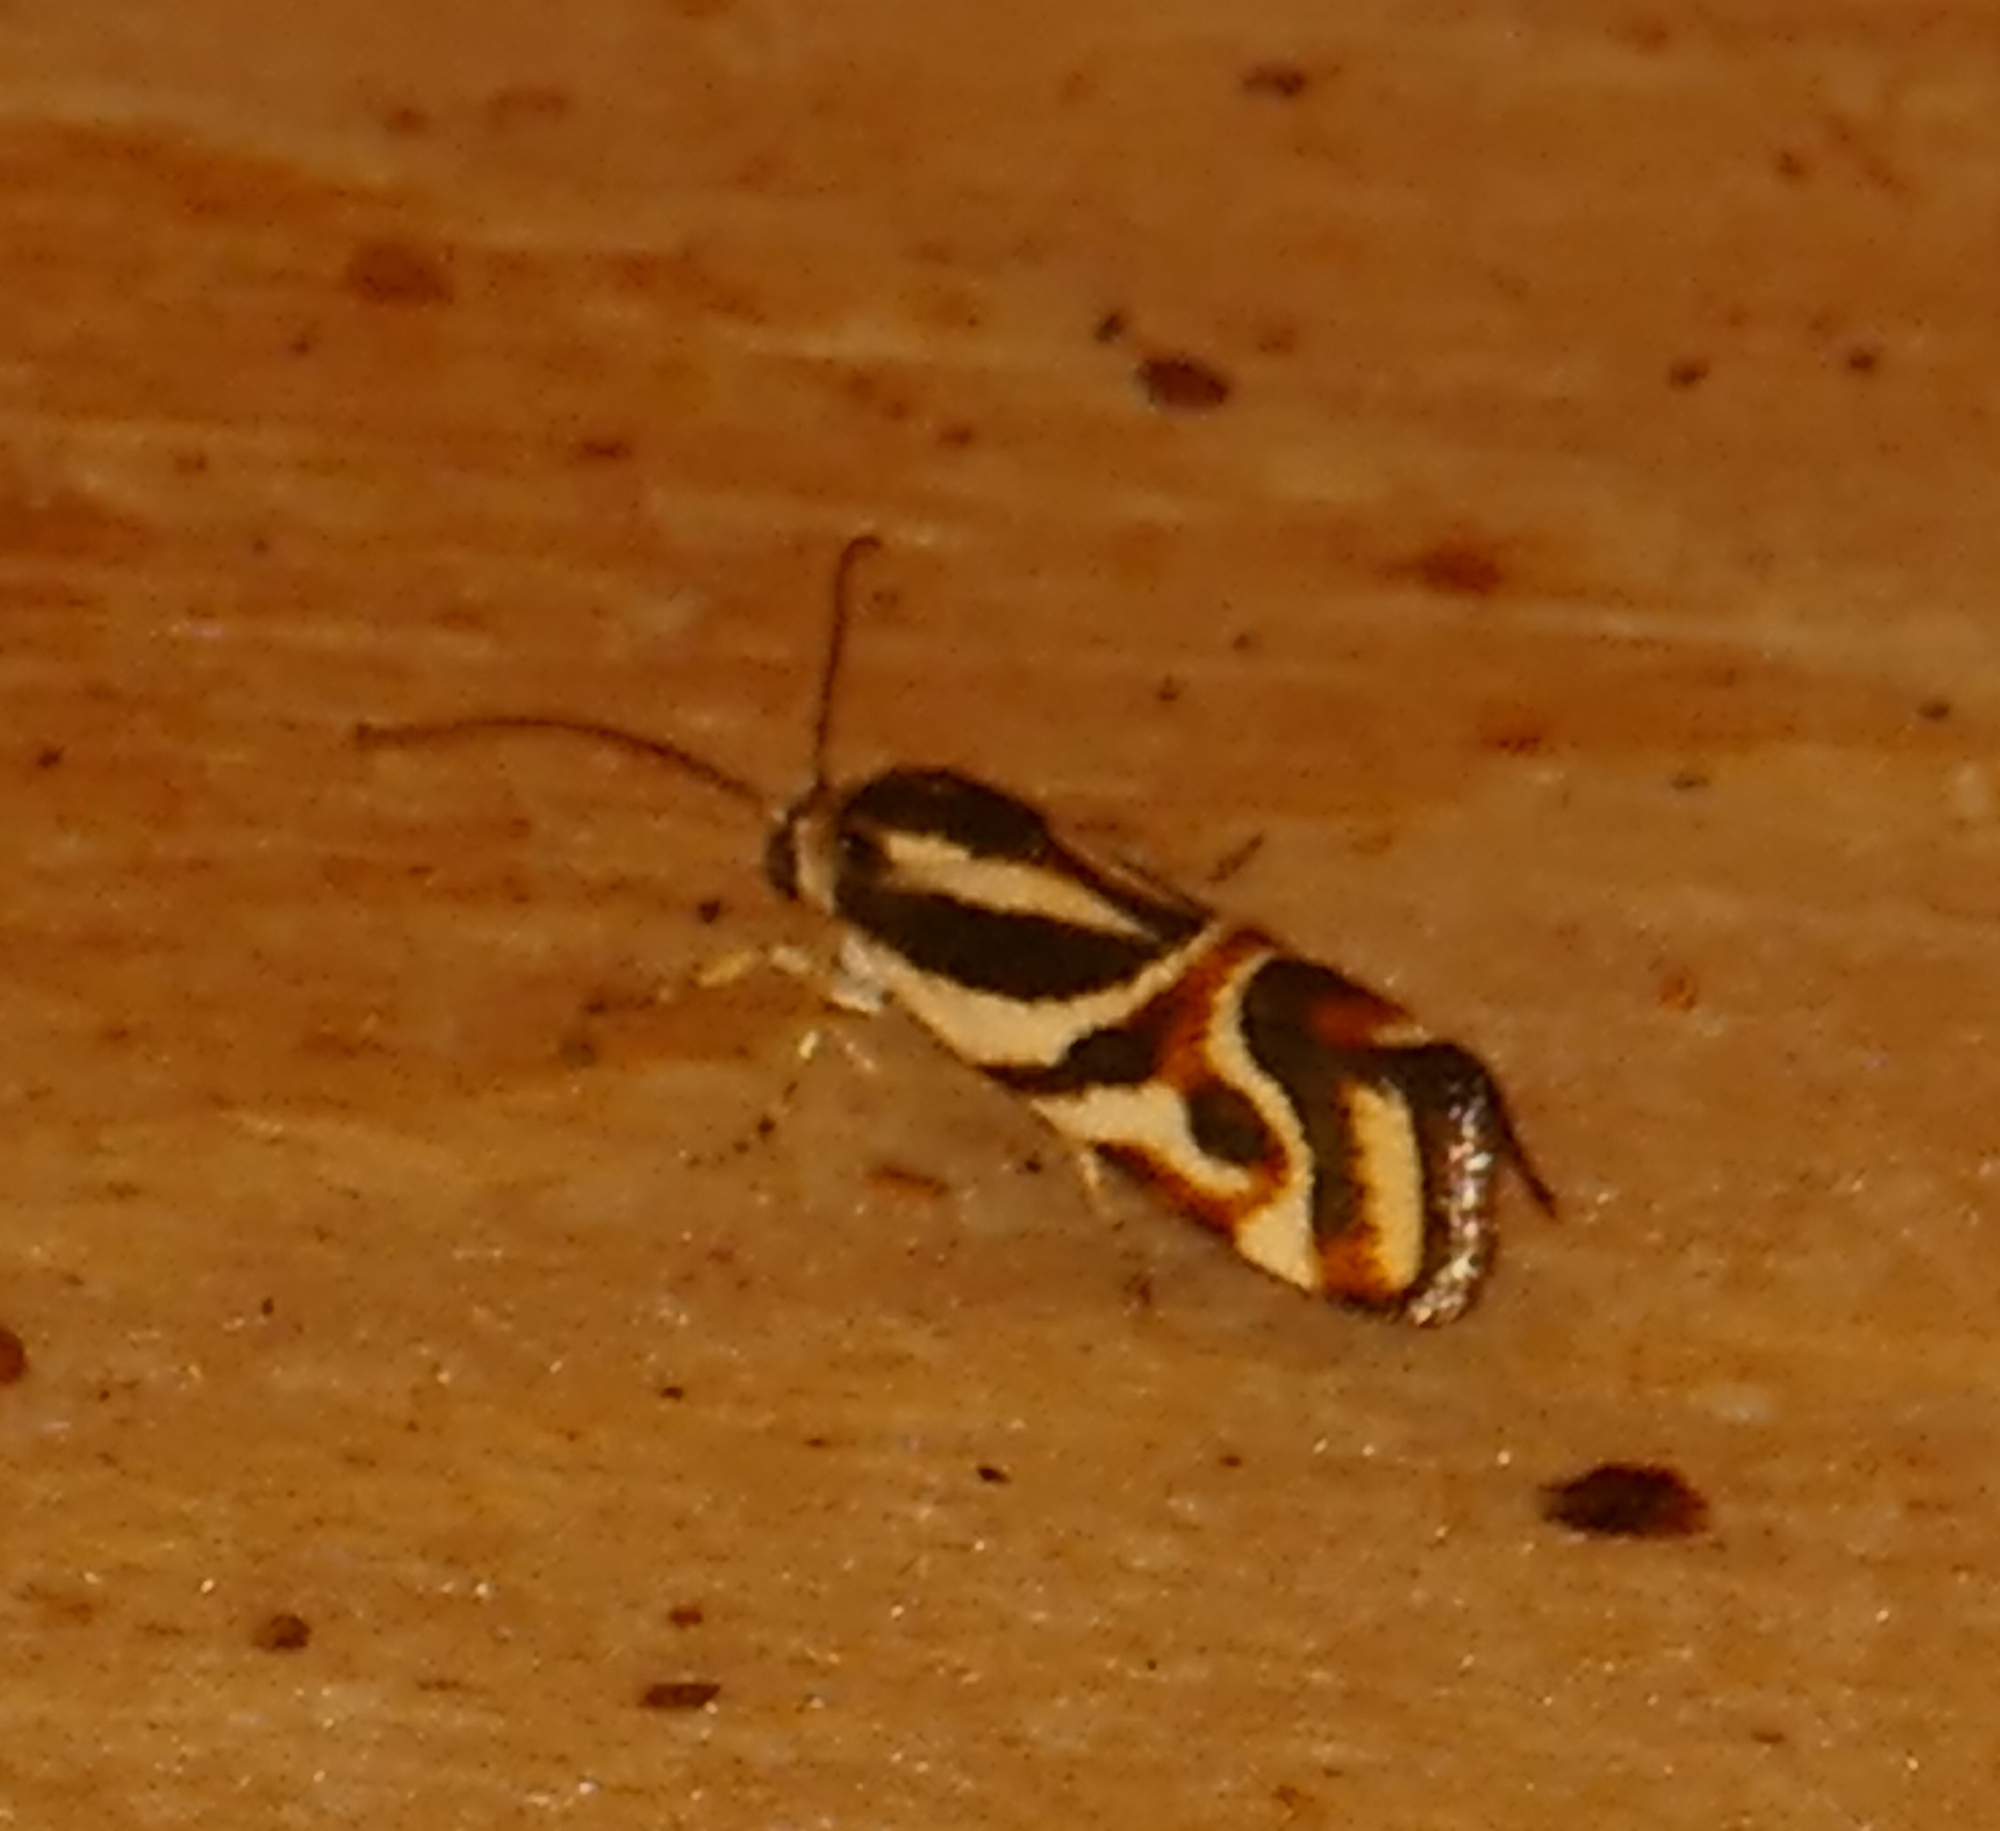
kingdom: Animalia
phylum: Arthropoda
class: Insecta
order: Lepidoptera
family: Noctuidae
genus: Spragueia
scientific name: Spragueia magnifica
